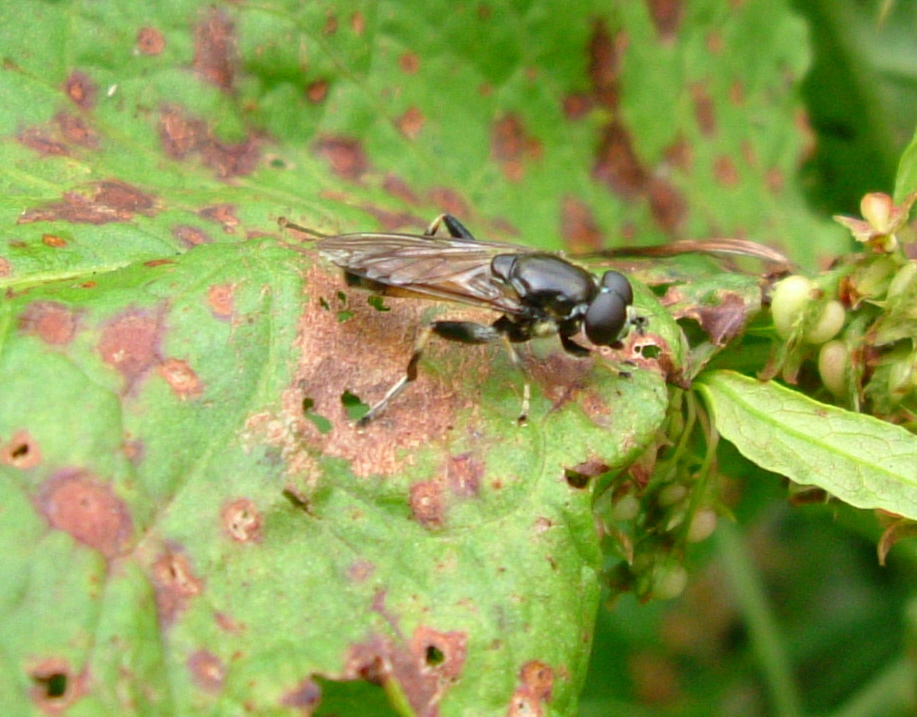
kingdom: Animalia
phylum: Arthropoda
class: Insecta
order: Diptera
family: Syrphidae
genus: Xylota
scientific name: Xylota segnis
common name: Brown-toed forest fly
